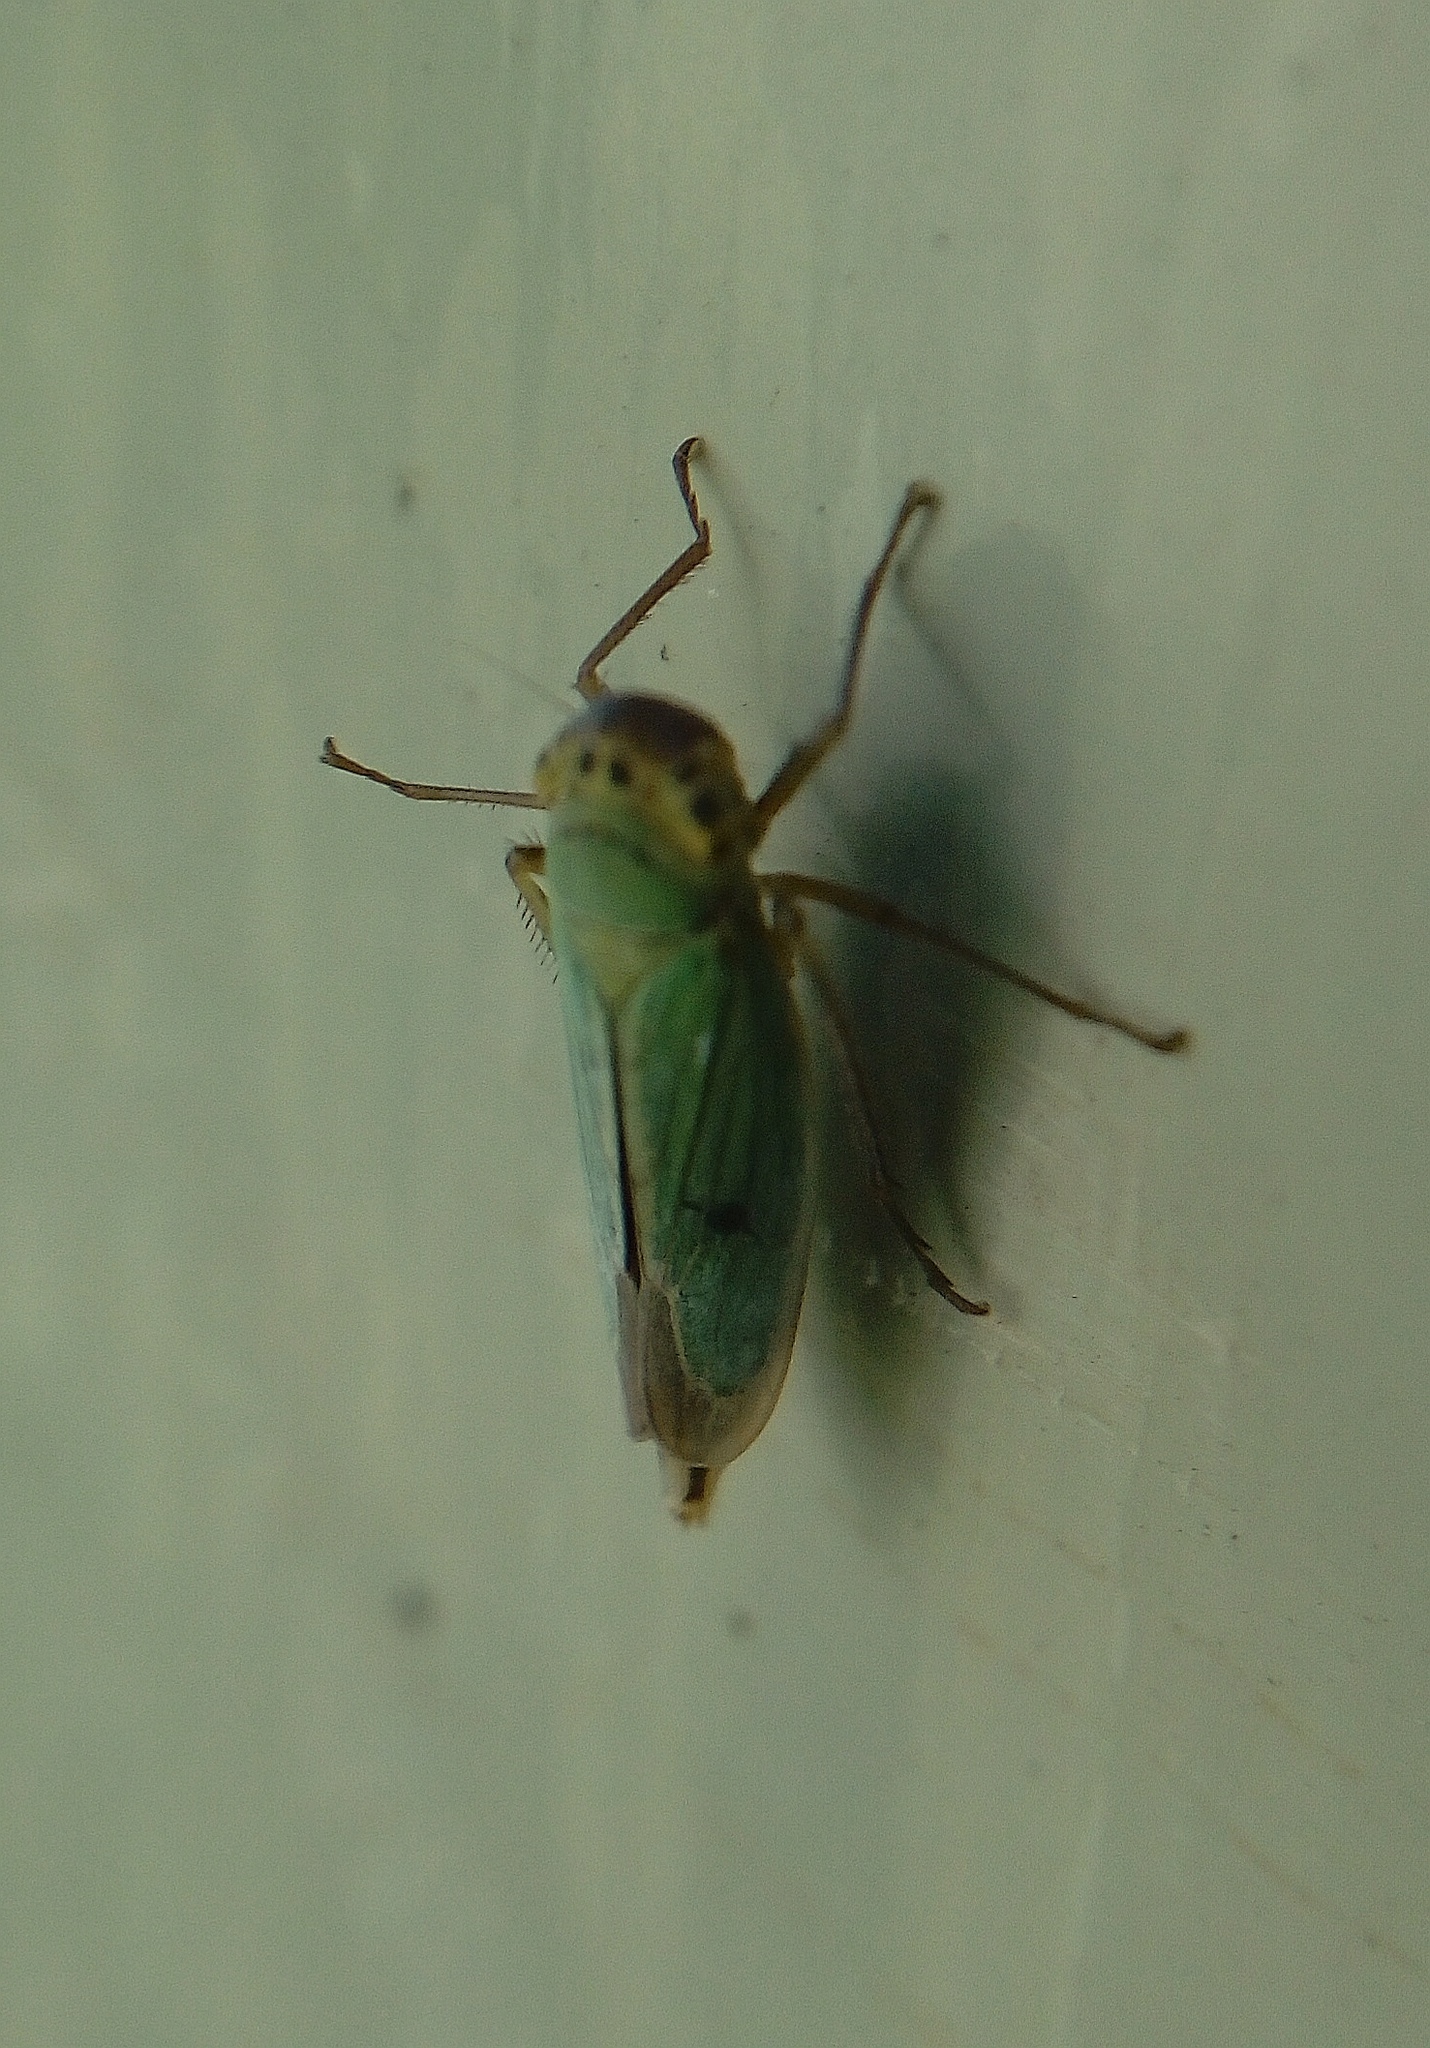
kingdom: Animalia
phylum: Arthropoda
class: Insecta
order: Hemiptera
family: Cicadellidae
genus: Cicadella
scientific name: Cicadella viridis
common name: Leafhopper
